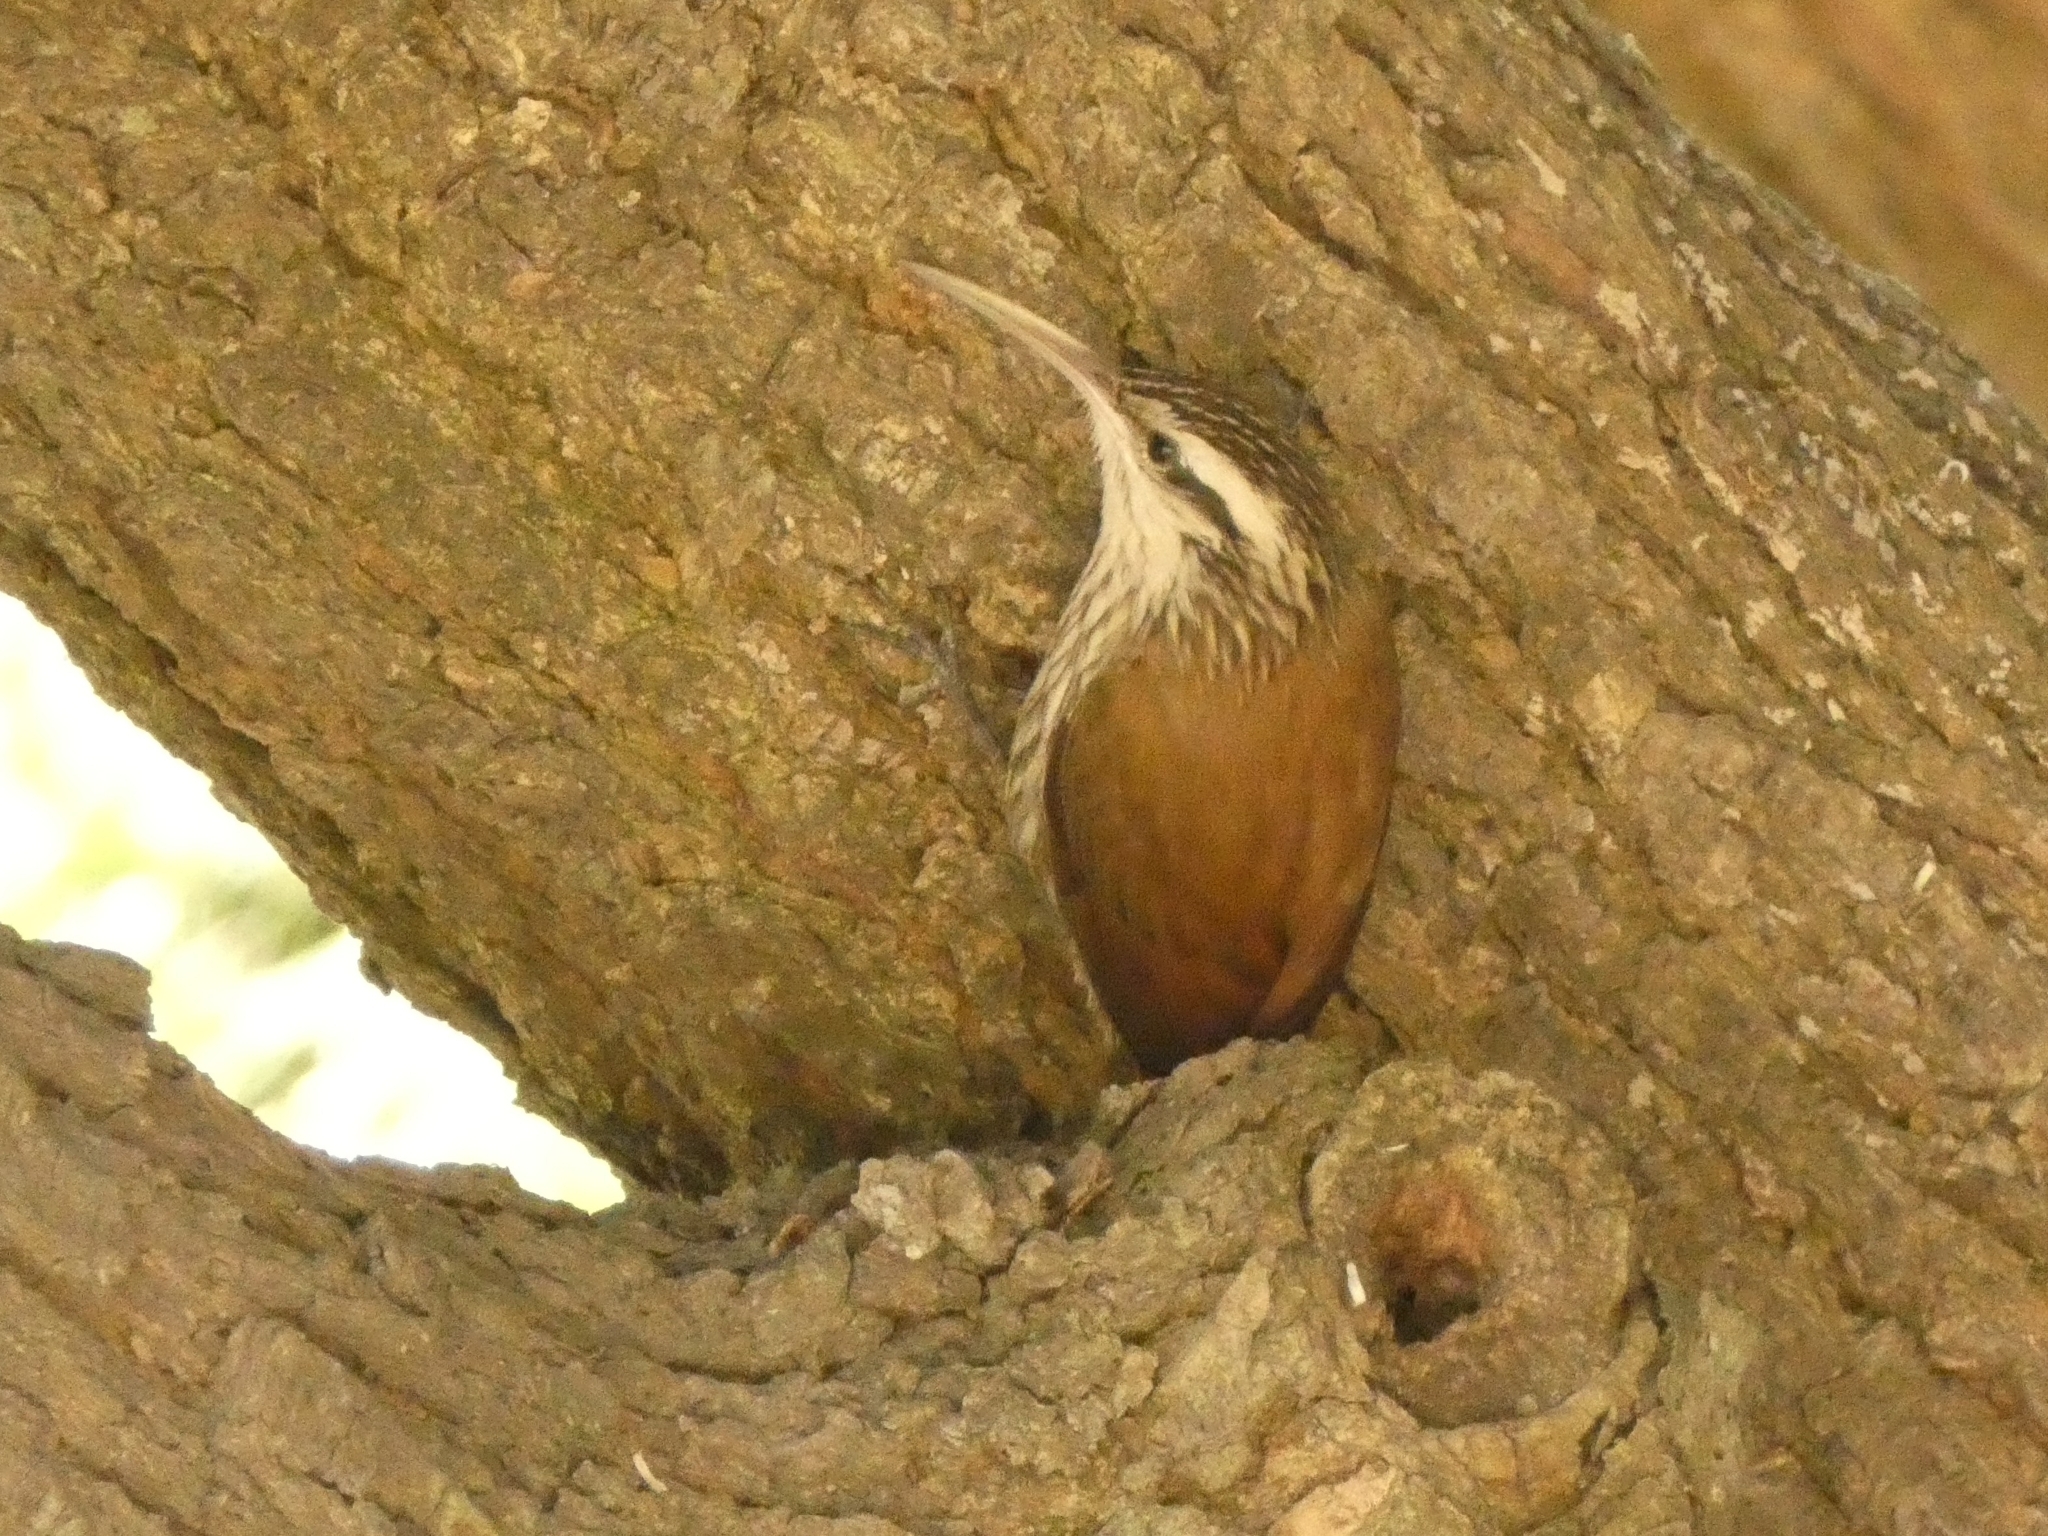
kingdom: Animalia
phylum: Chordata
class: Aves
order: Passeriformes
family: Furnariidae
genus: Lepidocolaptes
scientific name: Lepidocolaptes angustirostris
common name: Narrow-billed woodcreeper
